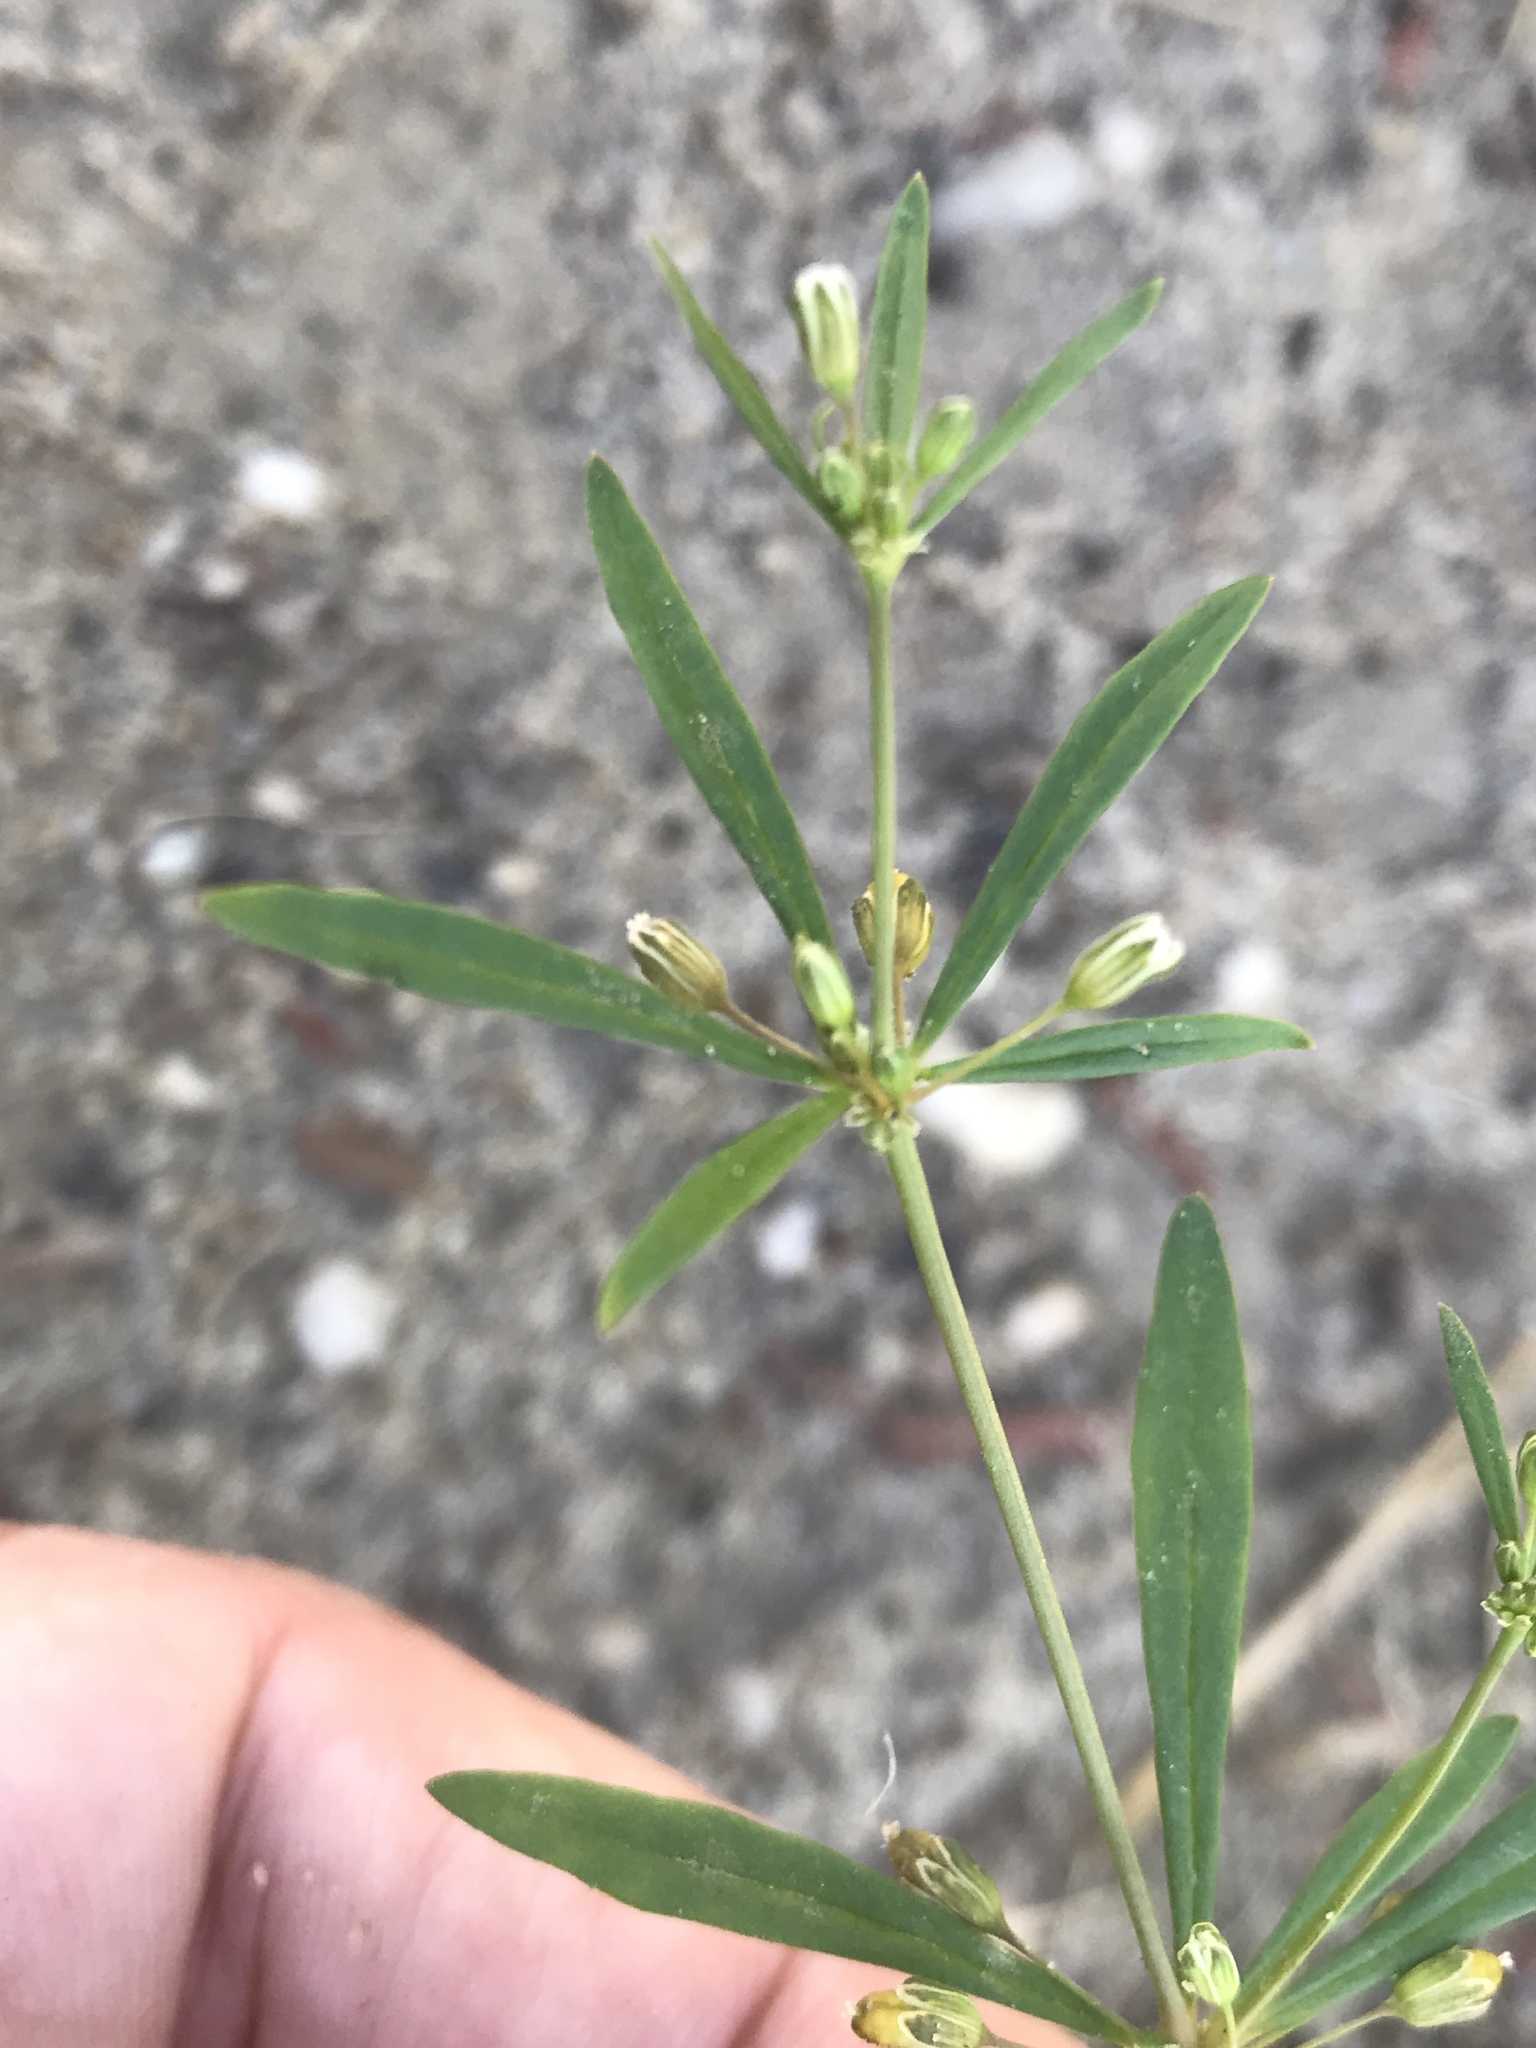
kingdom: Plantae
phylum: Tracheophyta
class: Magnoliopsida
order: Caryophyllales
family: Molluginaceae
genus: Mollugo
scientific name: Mollugo verticillata
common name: Green carpetweed
